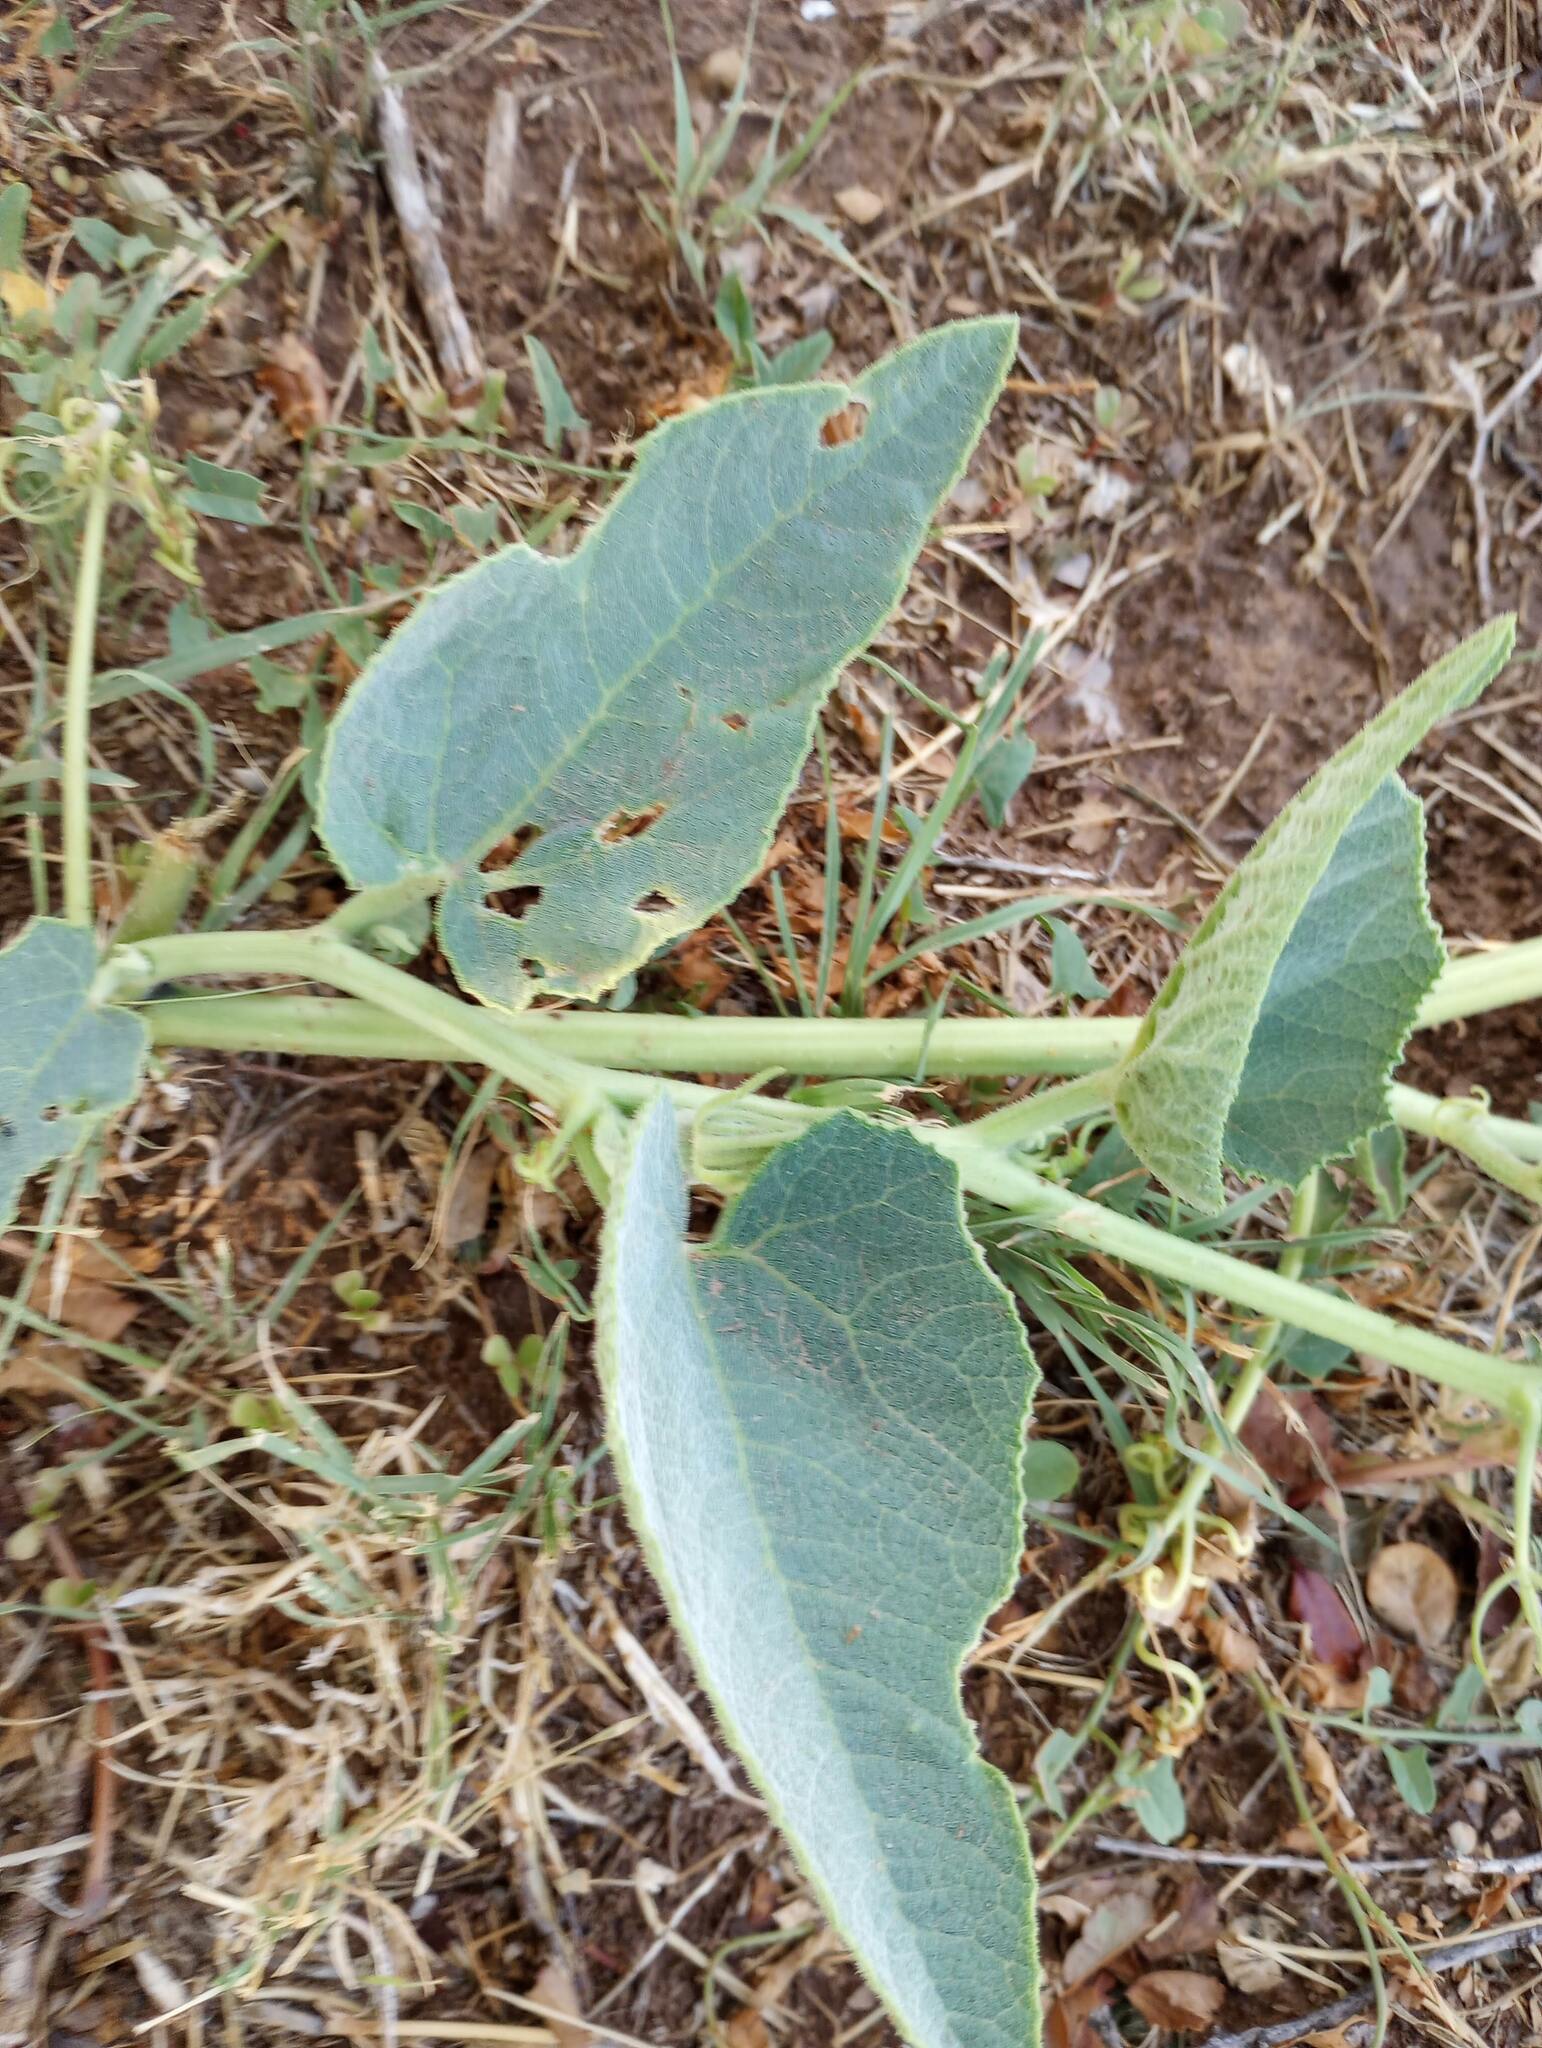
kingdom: Plantae
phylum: Tracheophyta
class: Magnoliopsida
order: Cucurbitales
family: Cucurbitaceae
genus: Cucurbita
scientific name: Cucurbita foetidissima
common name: Buffalo gourd
